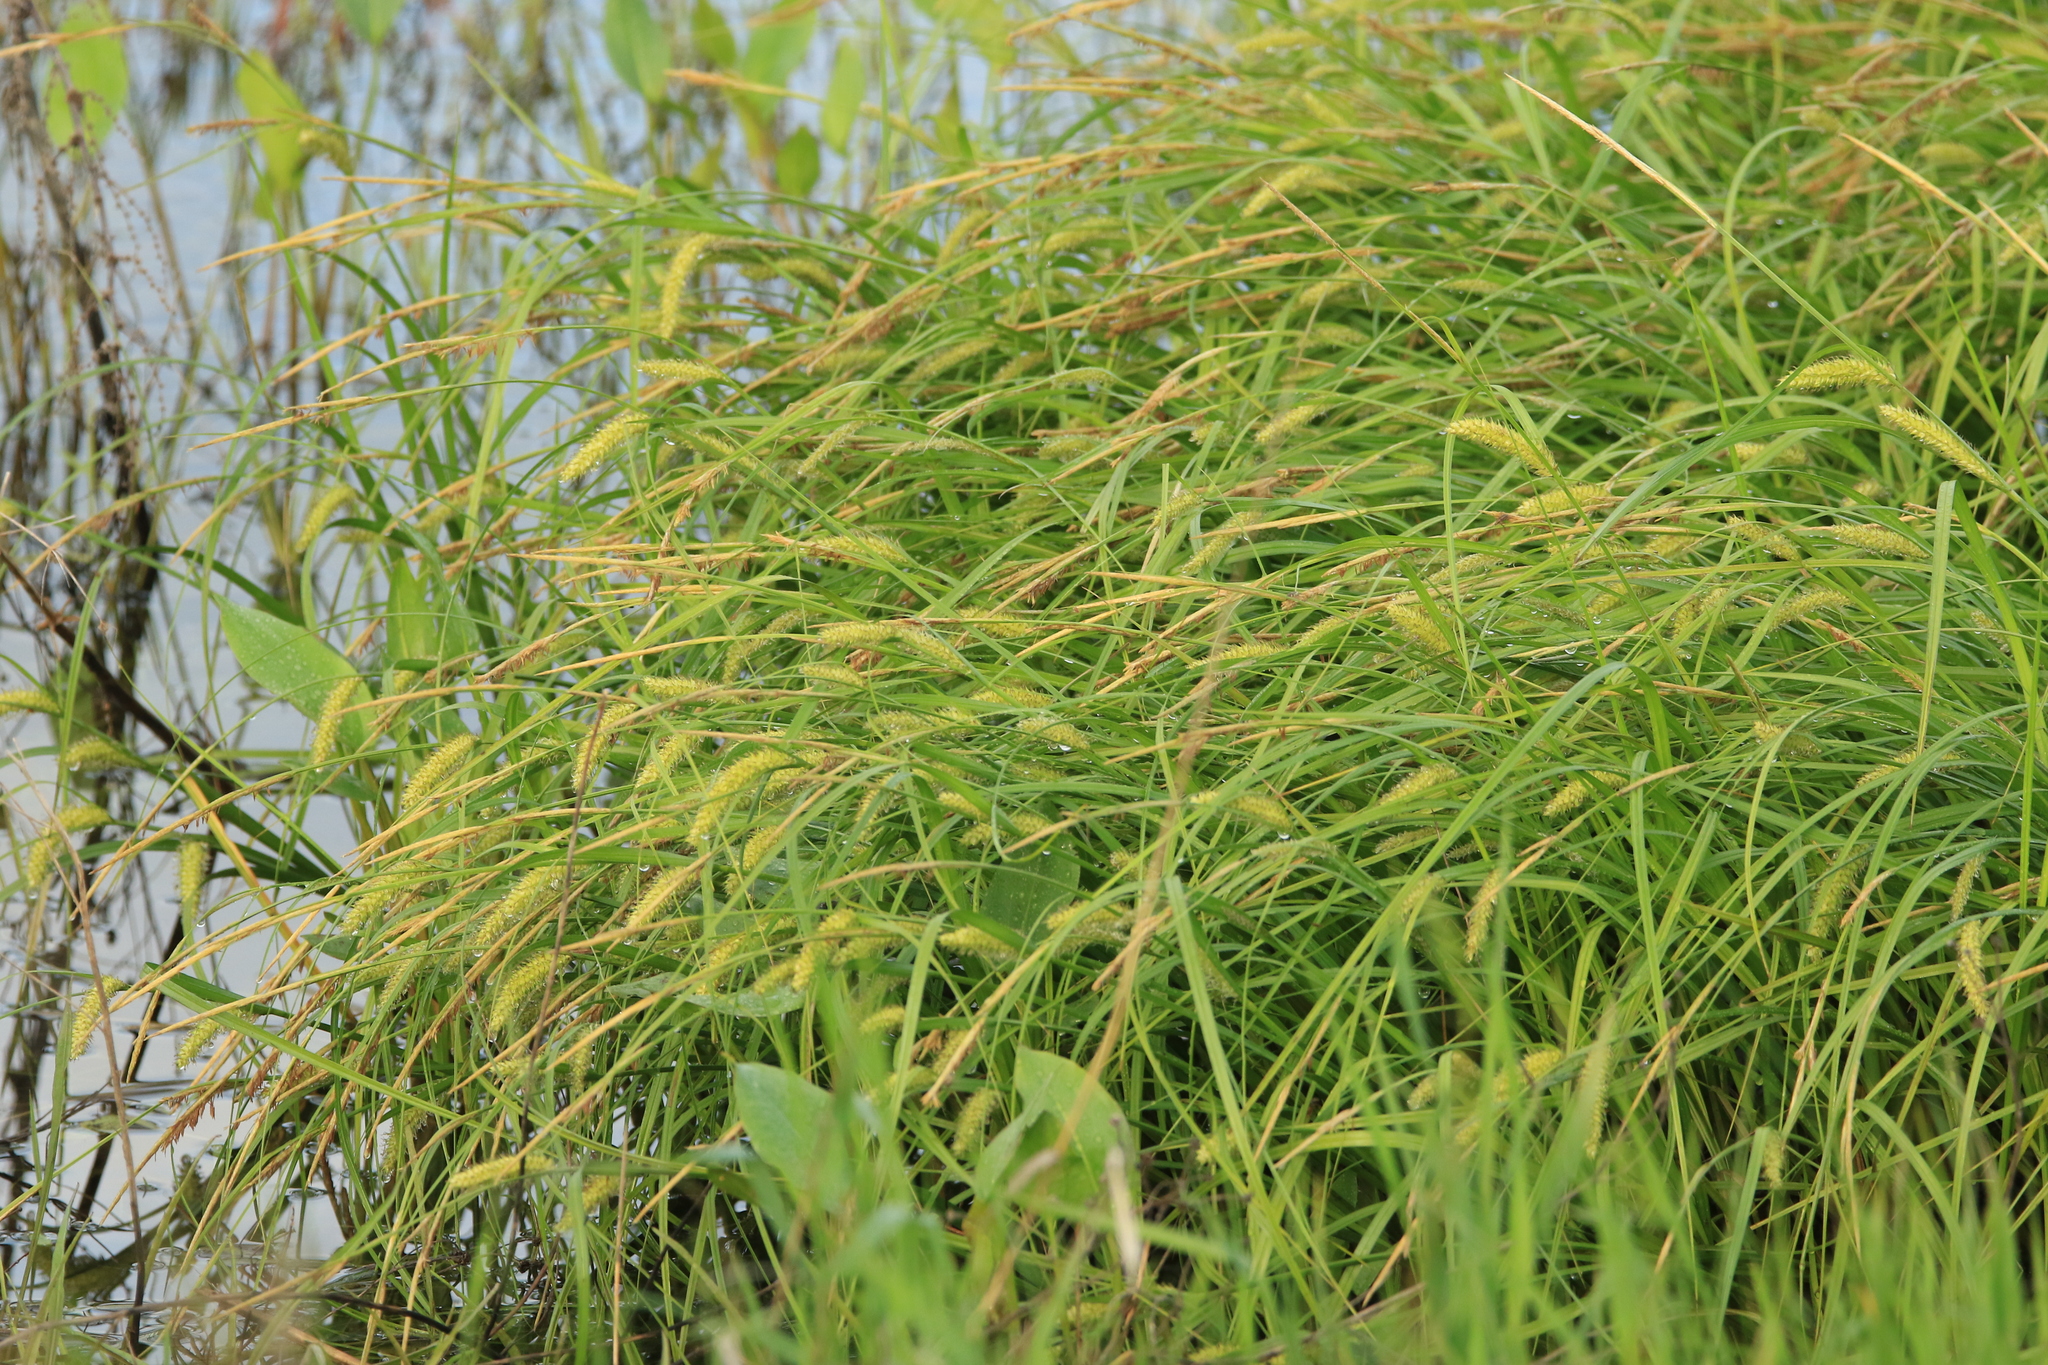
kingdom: Plantae
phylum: Tracheophyta
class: Liliopsida
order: Poales
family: Cyperaceae
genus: Carex
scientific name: Carex vesicaria
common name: Bladder-sedge
